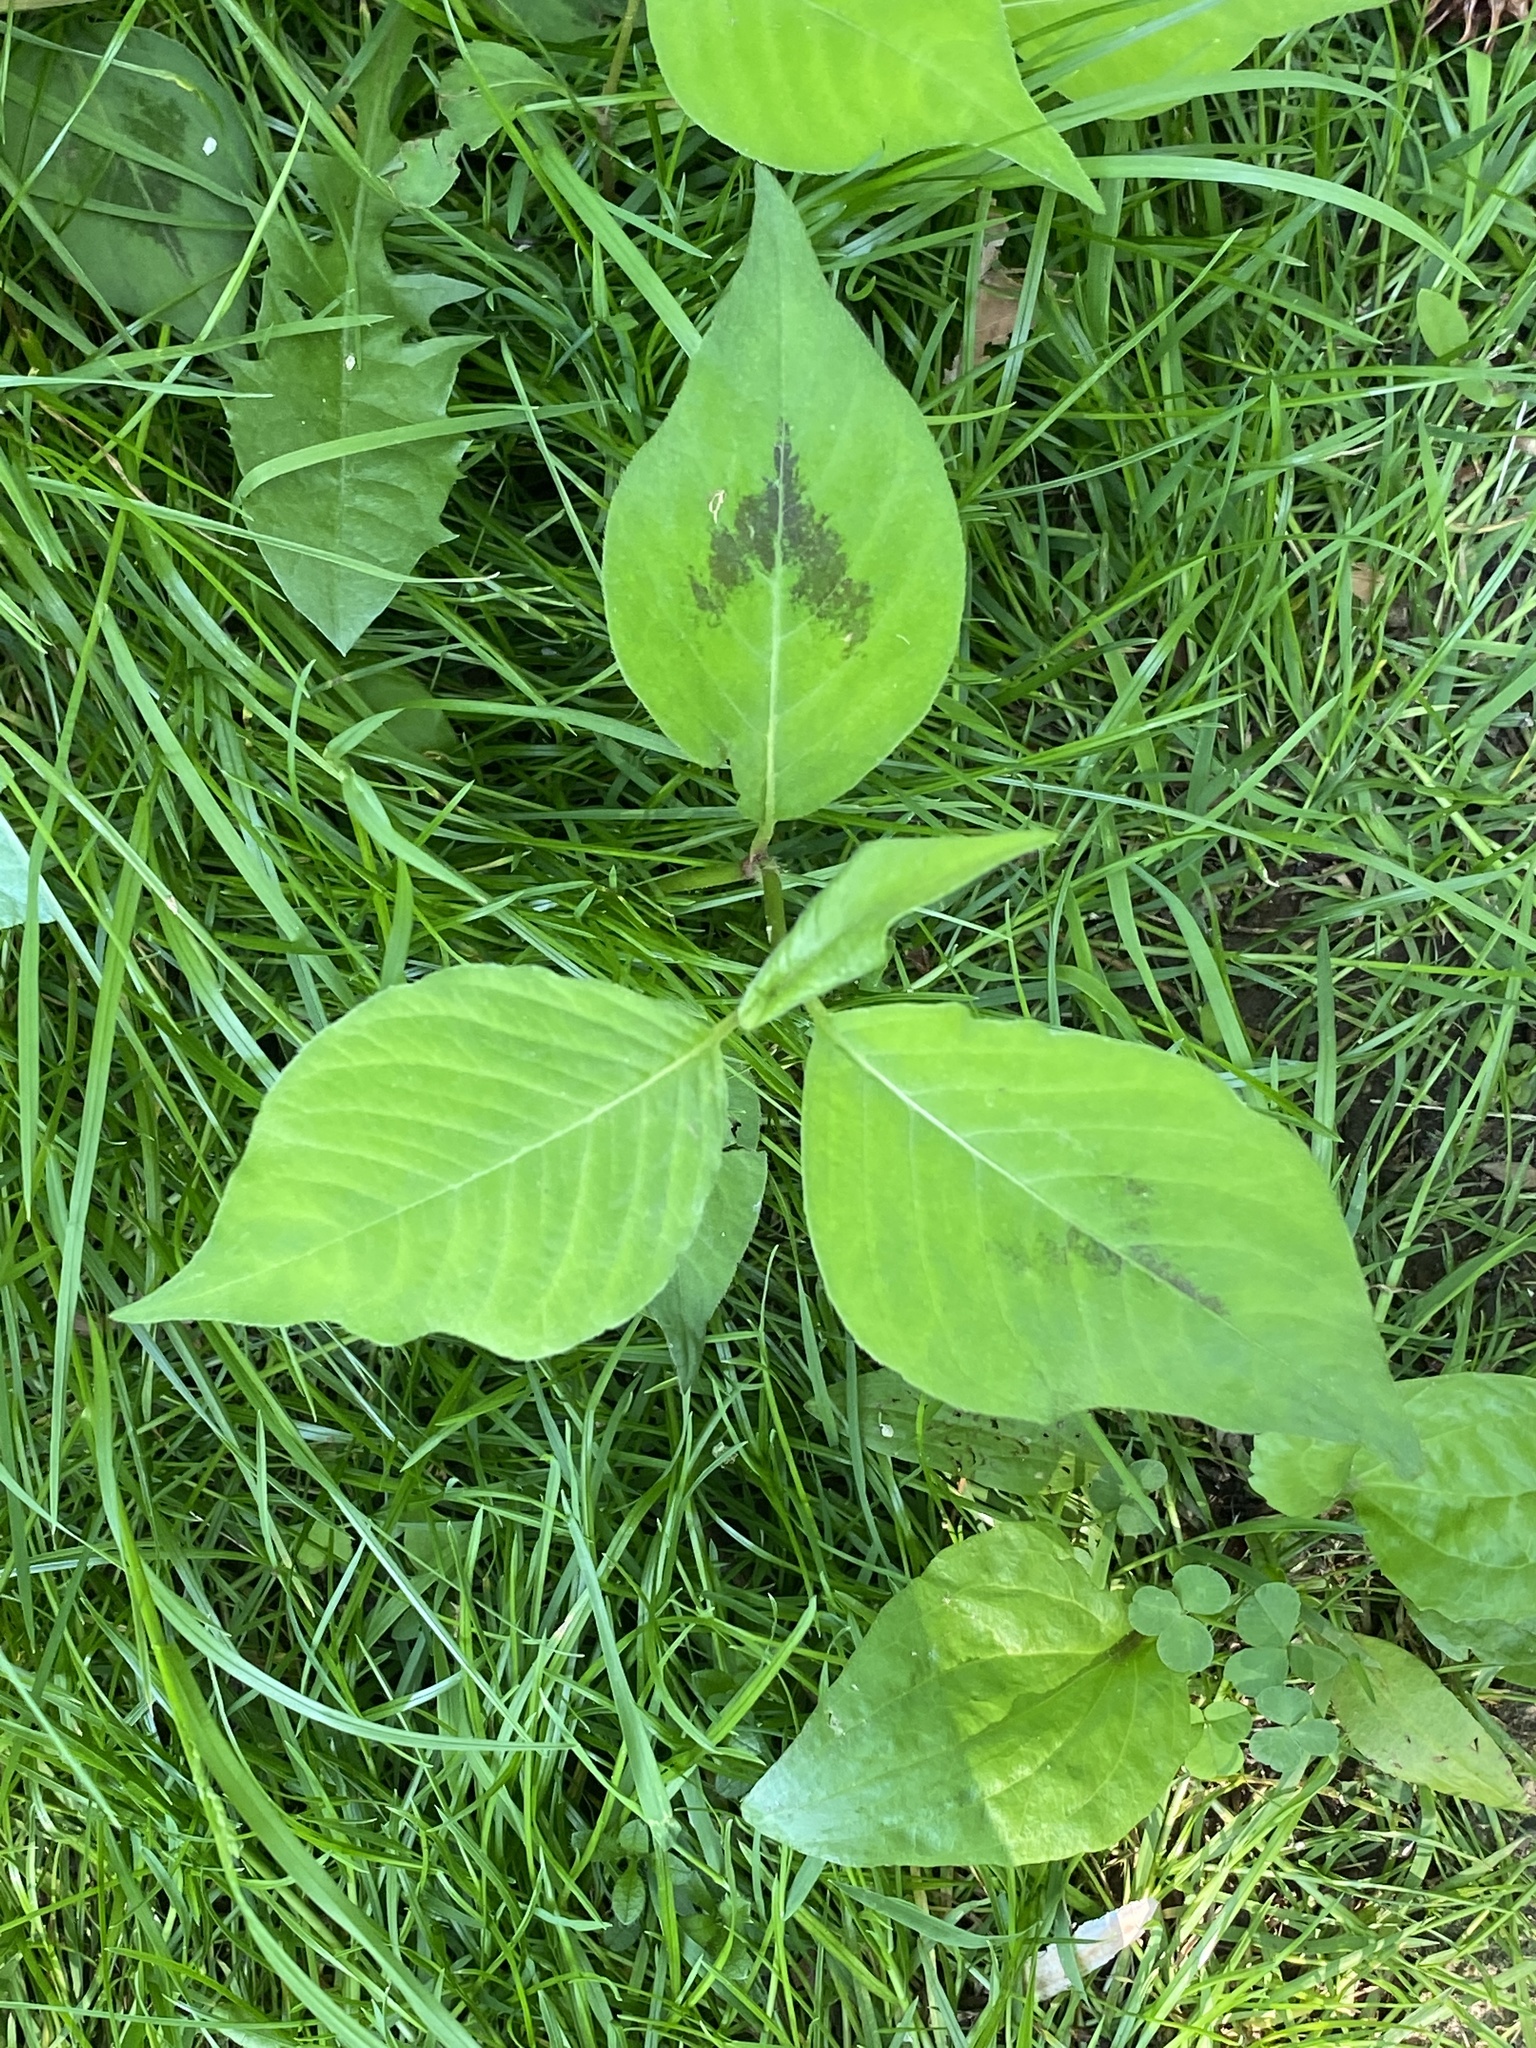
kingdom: Plantae
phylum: Tracheophyta
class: Magnoliopsida
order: Caryophyllales
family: Polygonaceae
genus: Persicaria
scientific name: Persicaria virginiana
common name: Jumpseed
